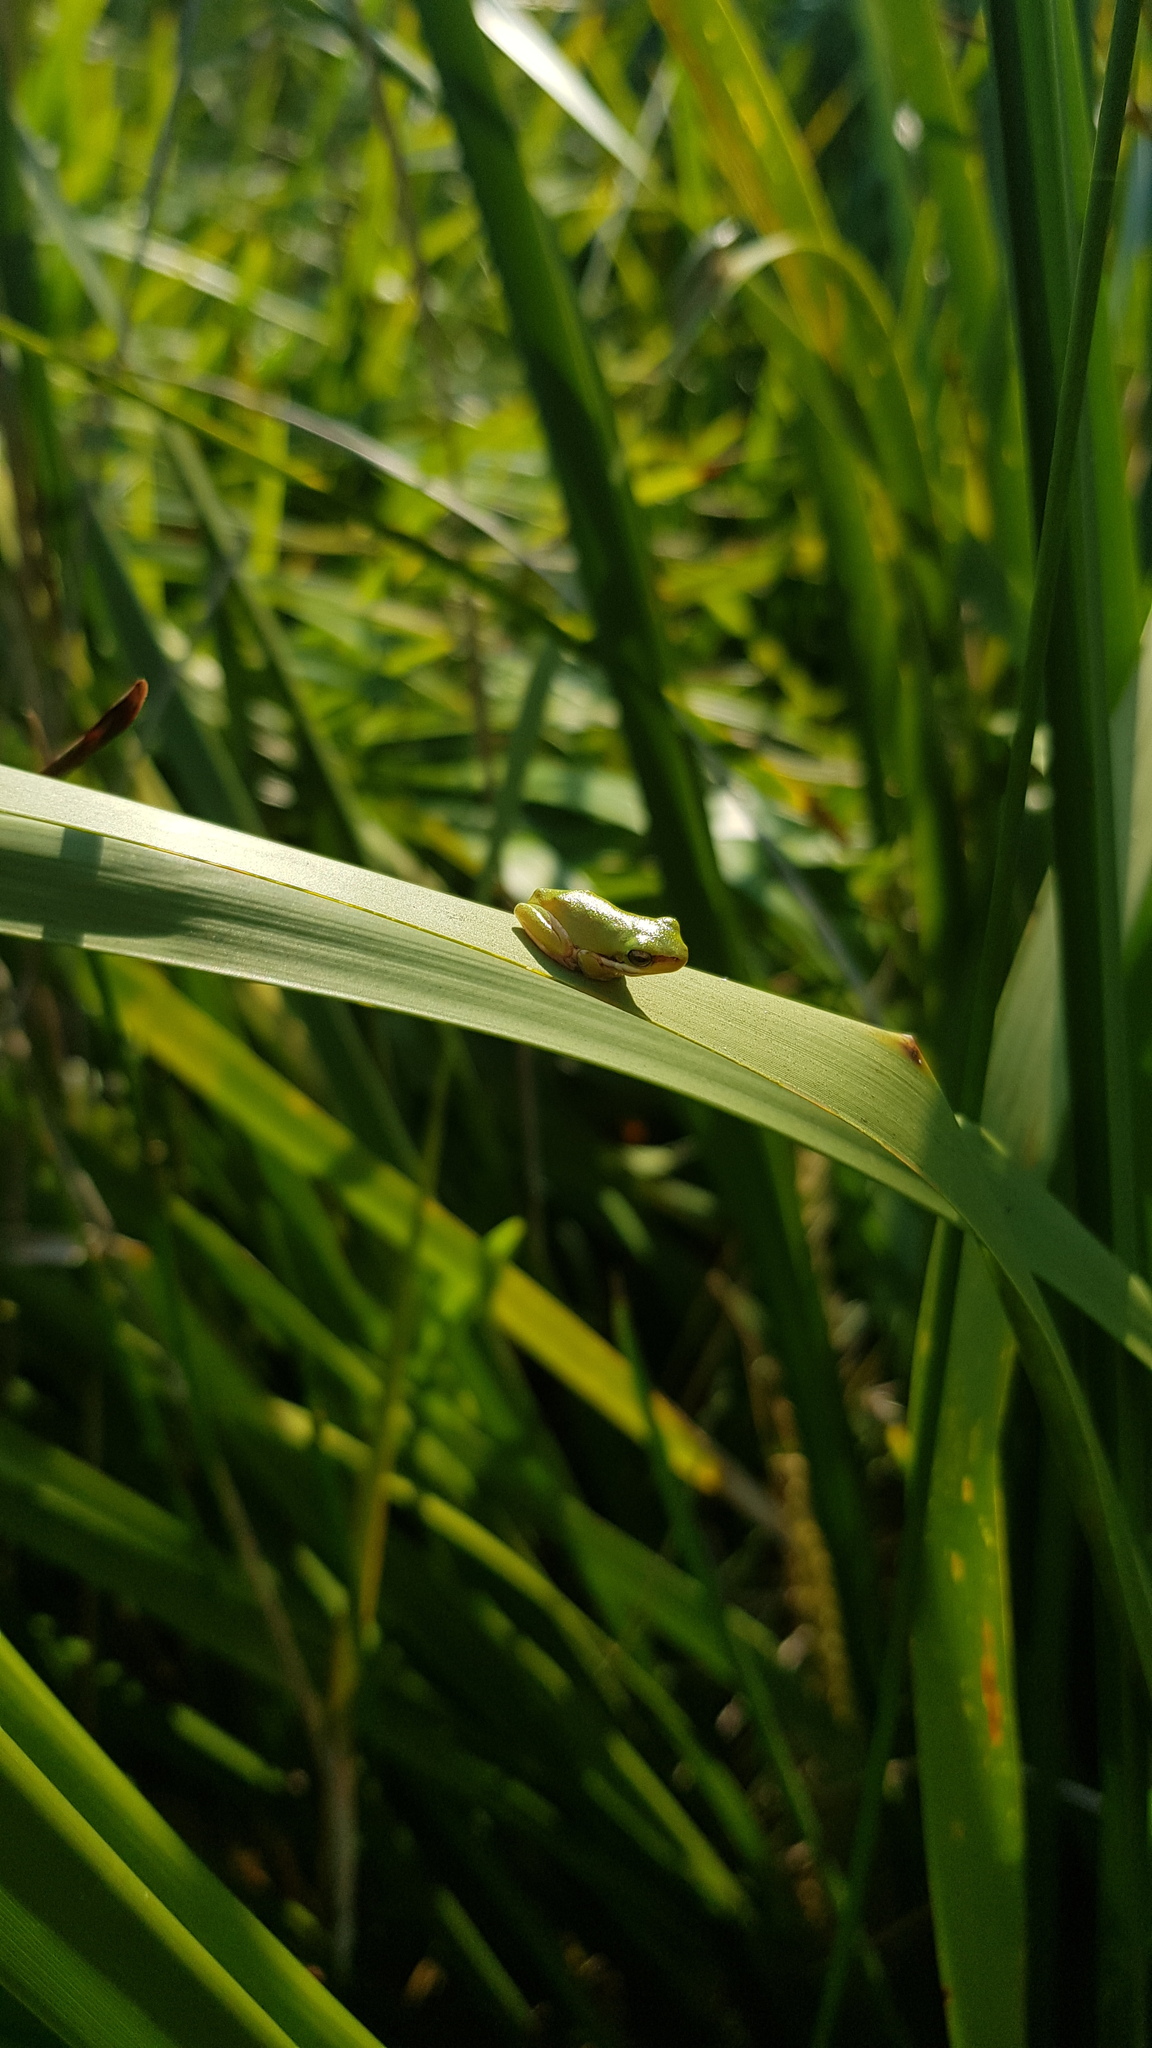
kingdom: Animalia
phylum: Chordata
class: Amphibia
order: Anura
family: Pelodryadidae
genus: Litoria
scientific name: Litoria fallax
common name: Eastern dwarf treefrog
